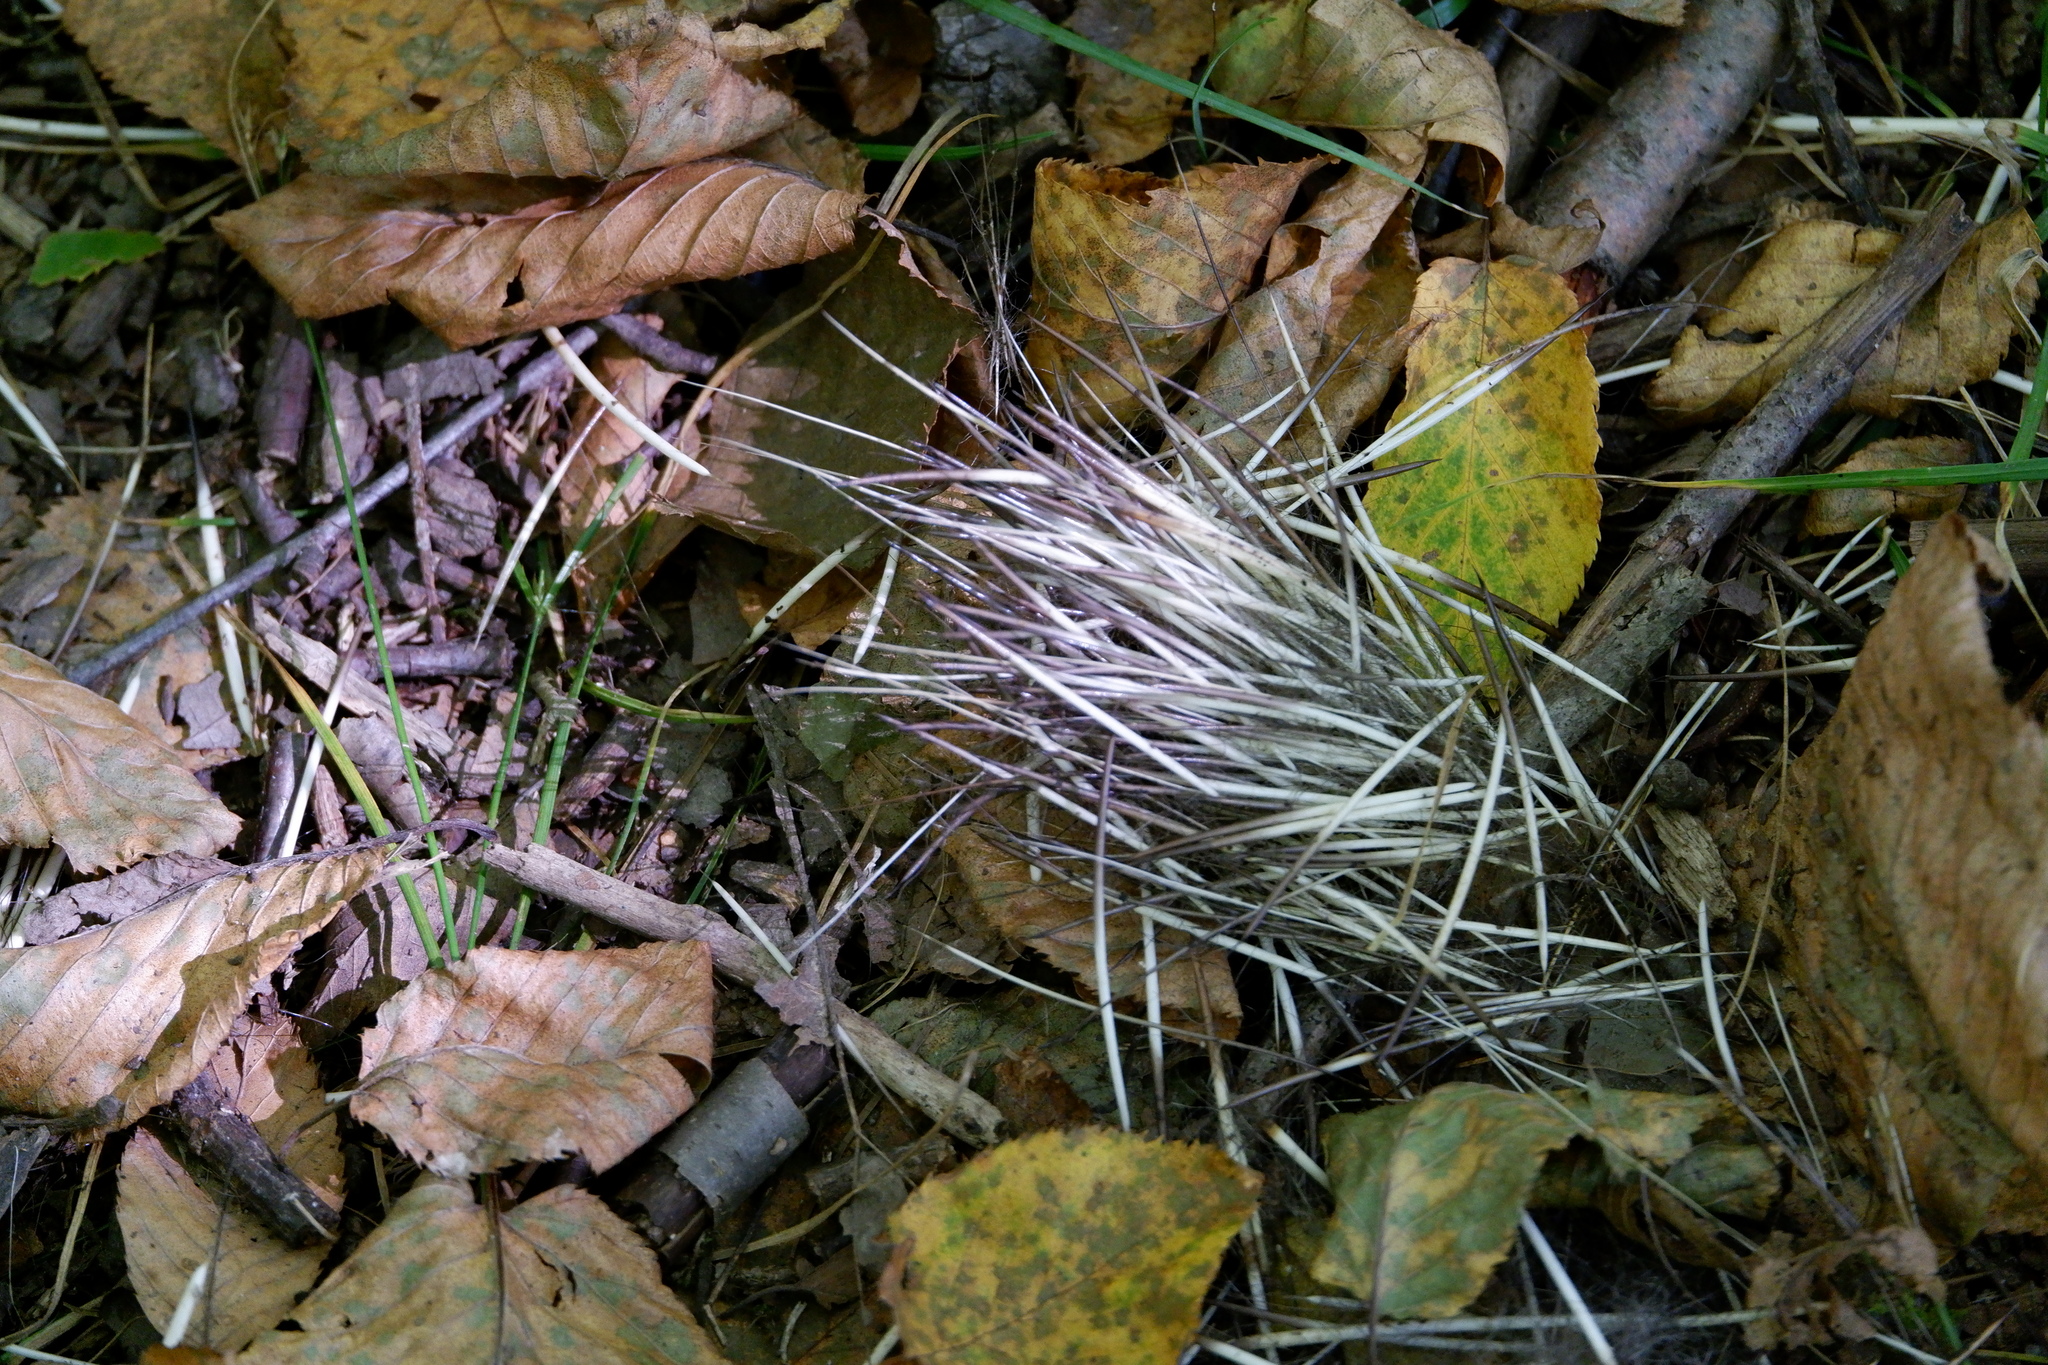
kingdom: Animalia
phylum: Chordata
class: Mammalia
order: Rodentia
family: Erethizontidae
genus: Erethizon
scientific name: Erethizon dorsatus
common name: North american porcupine
